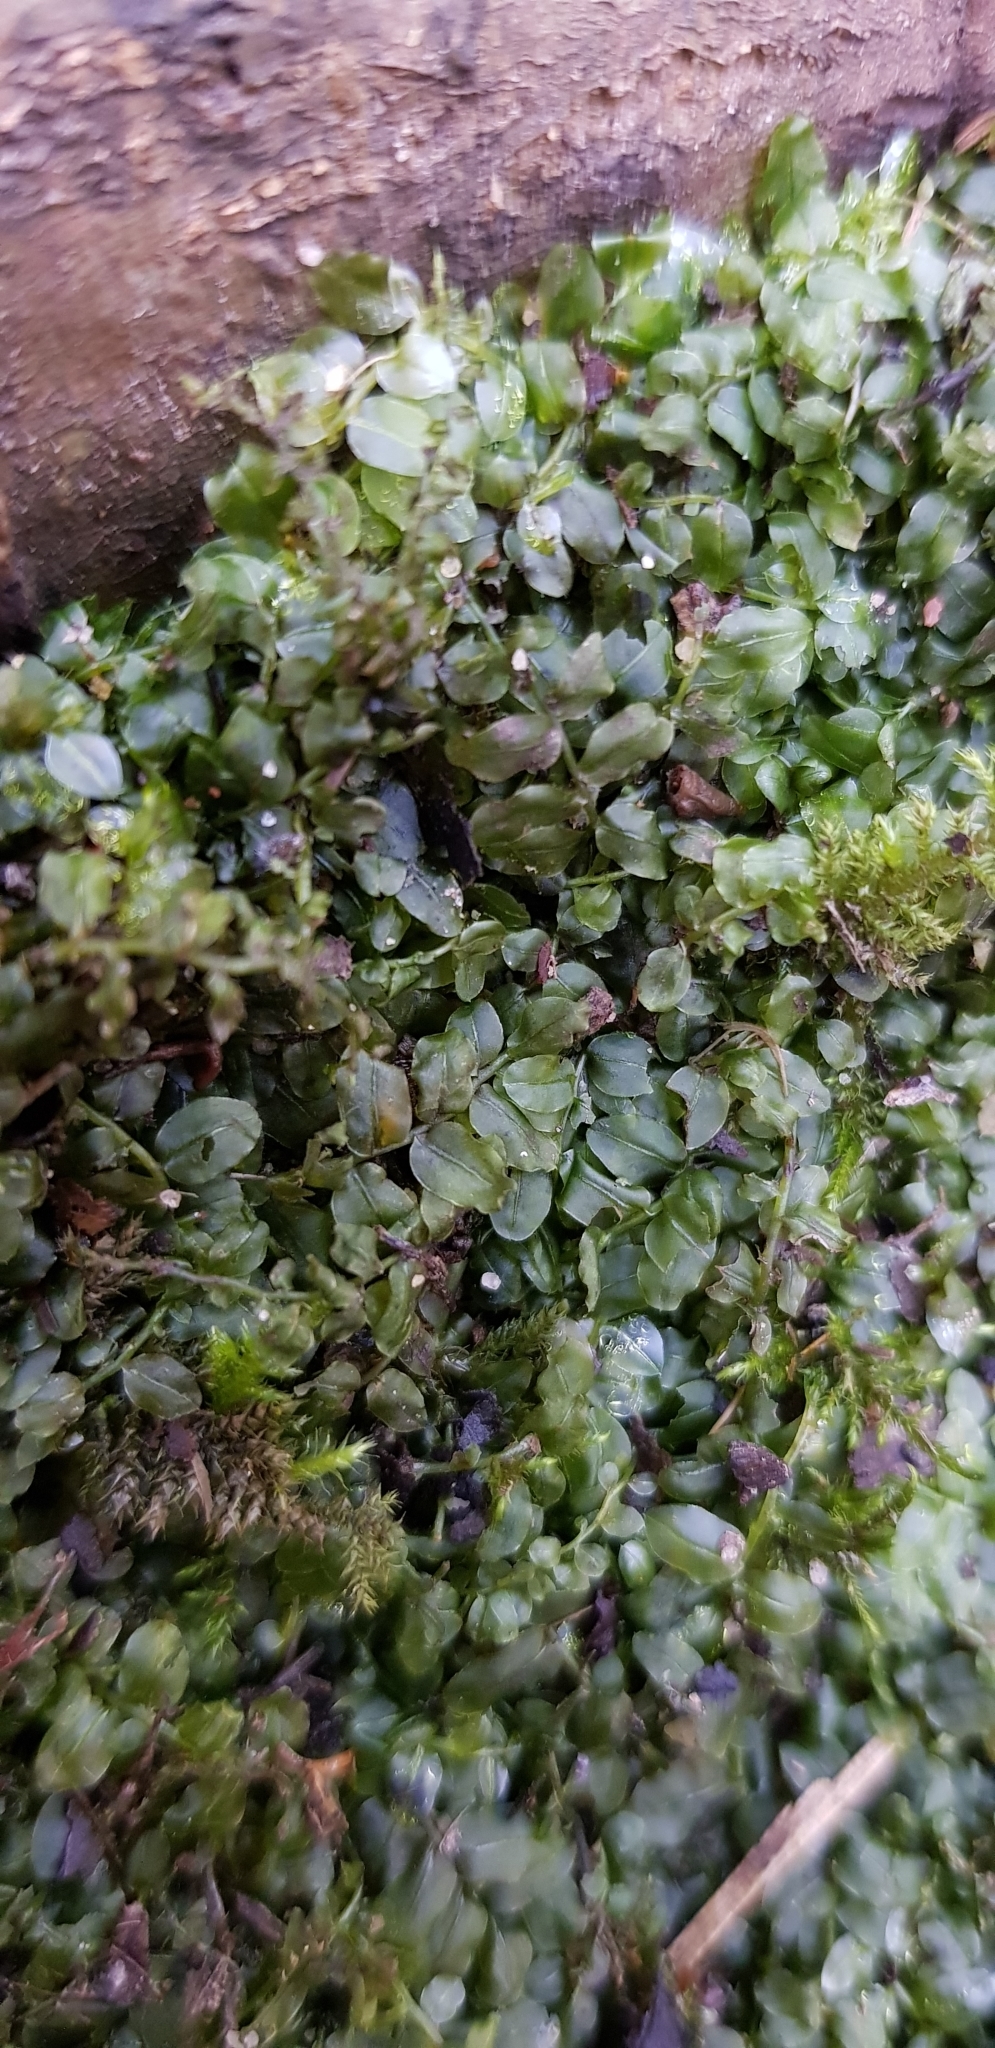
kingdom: Plantae
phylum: Bryophyta
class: Bryopsida
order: Bryales
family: Mniaceae
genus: Plagiomnium
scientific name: Plagiomnium rostratum
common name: Long-beaked leafy moss
